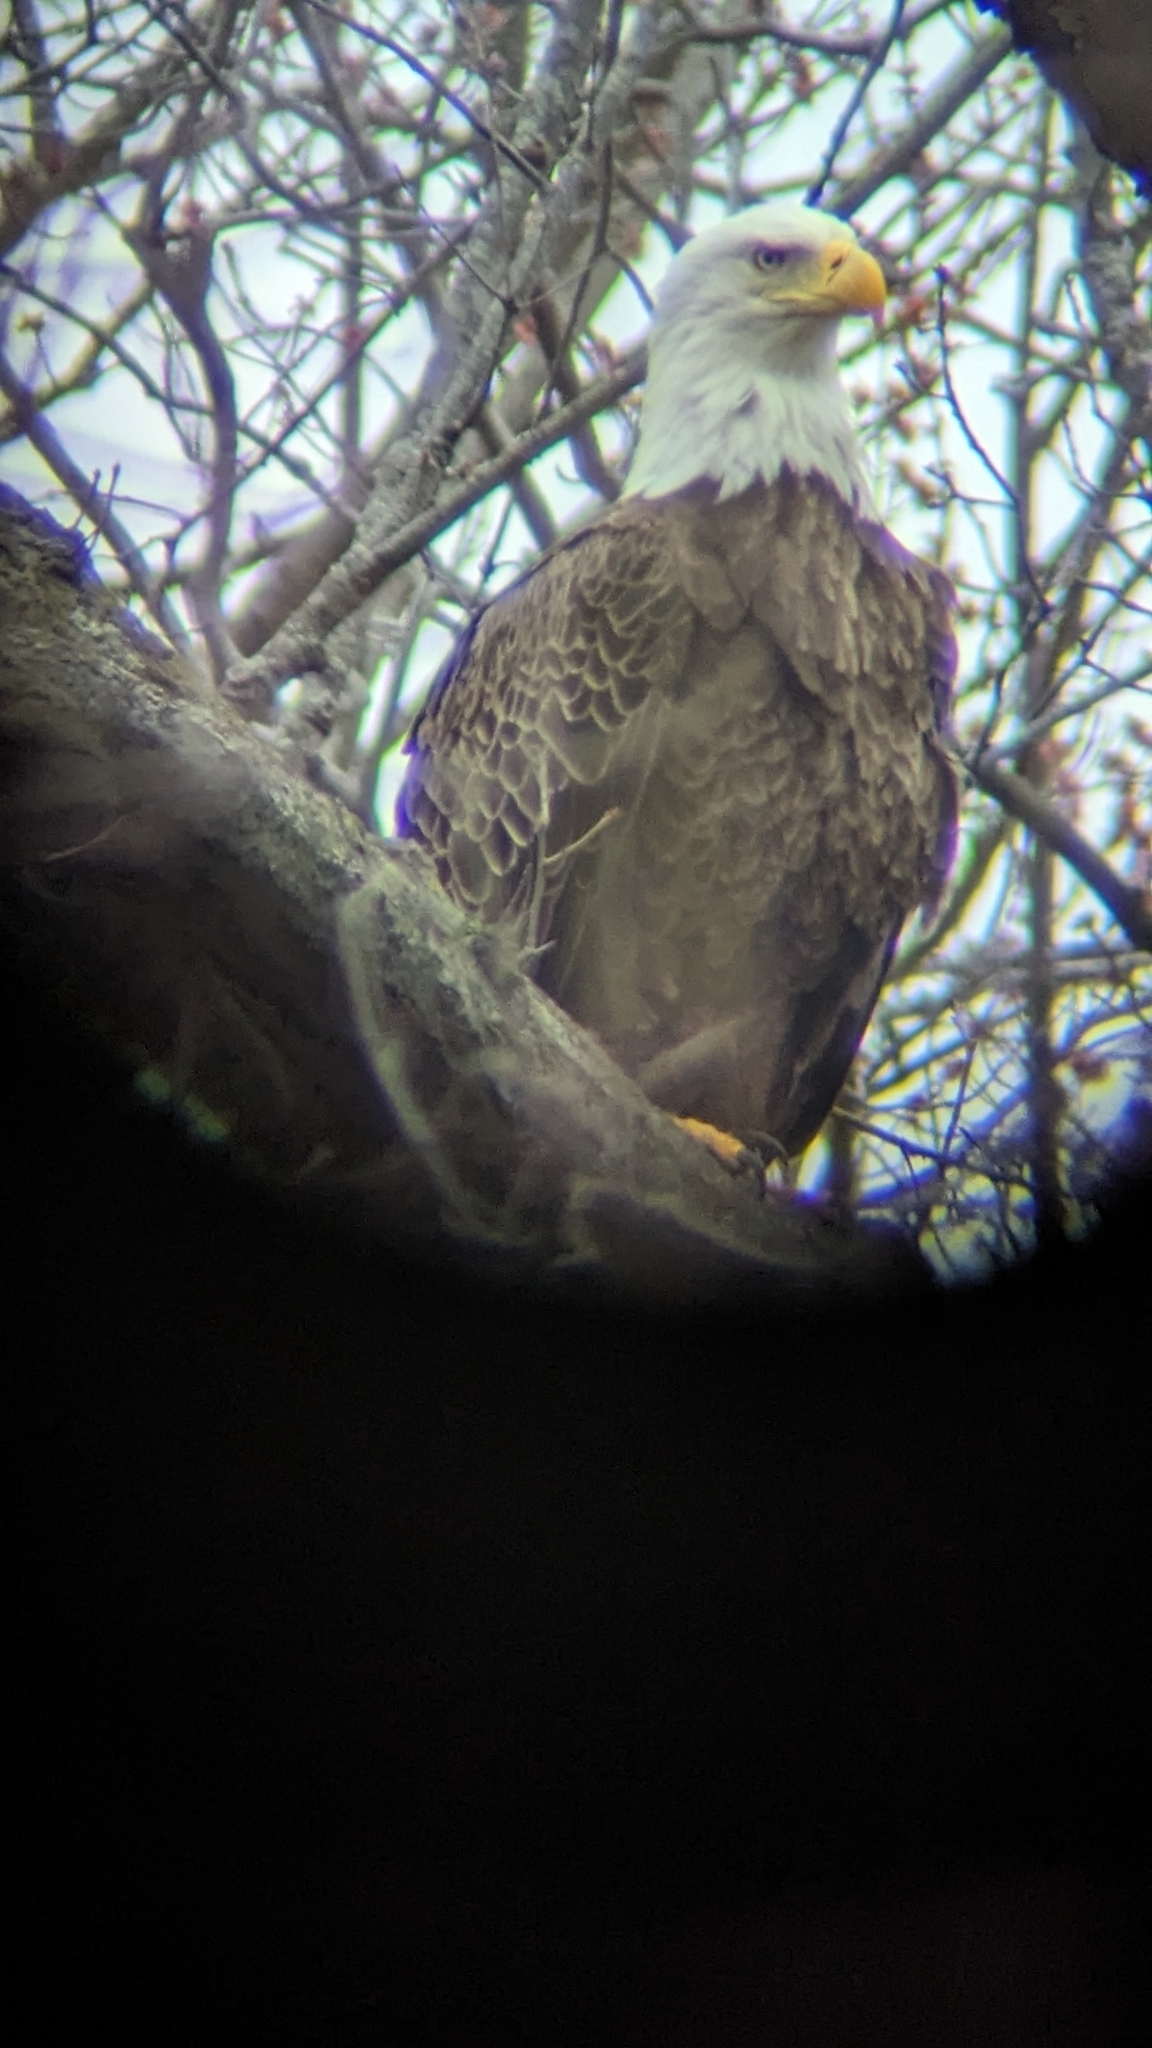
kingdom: Animalia
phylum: Chordata
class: Aves
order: Accipitriformes
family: Accipitridae
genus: Haliaeetus
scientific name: Haliaeetus leucocephalus
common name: Bald eagle
